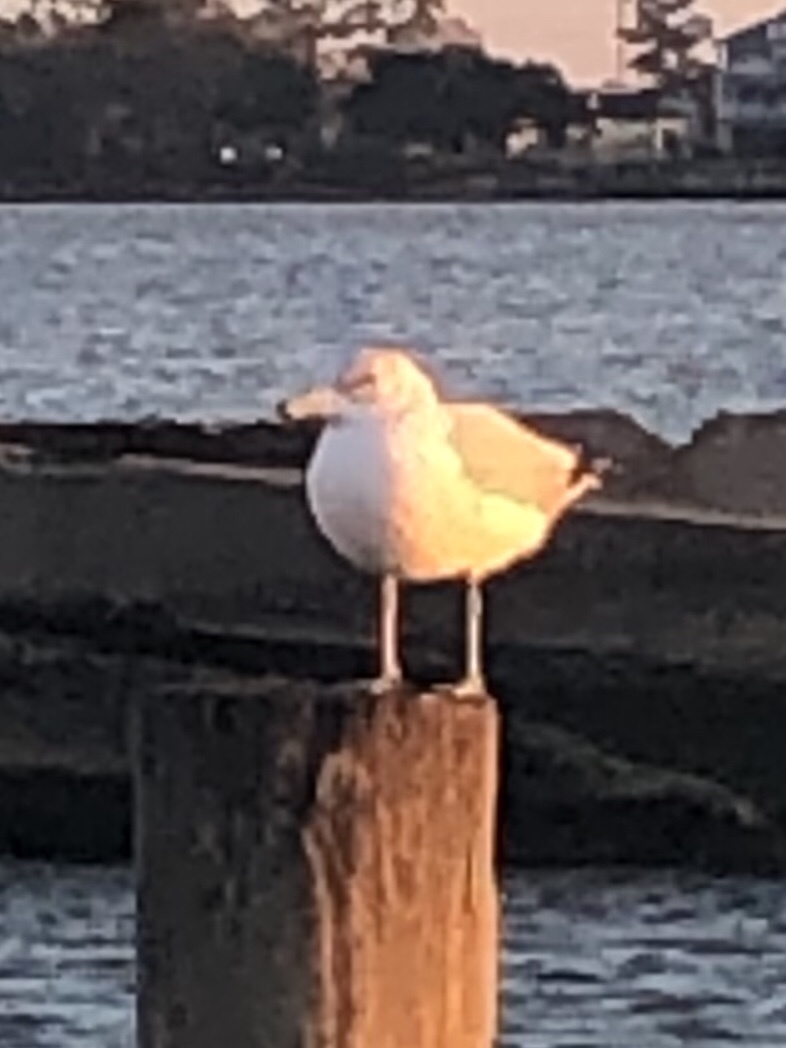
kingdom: Animalia
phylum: Chordata
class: Aves
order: Charadriiformes
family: Laridae
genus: Larus
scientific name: Larus delawarensis
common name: Ring-billed gull
